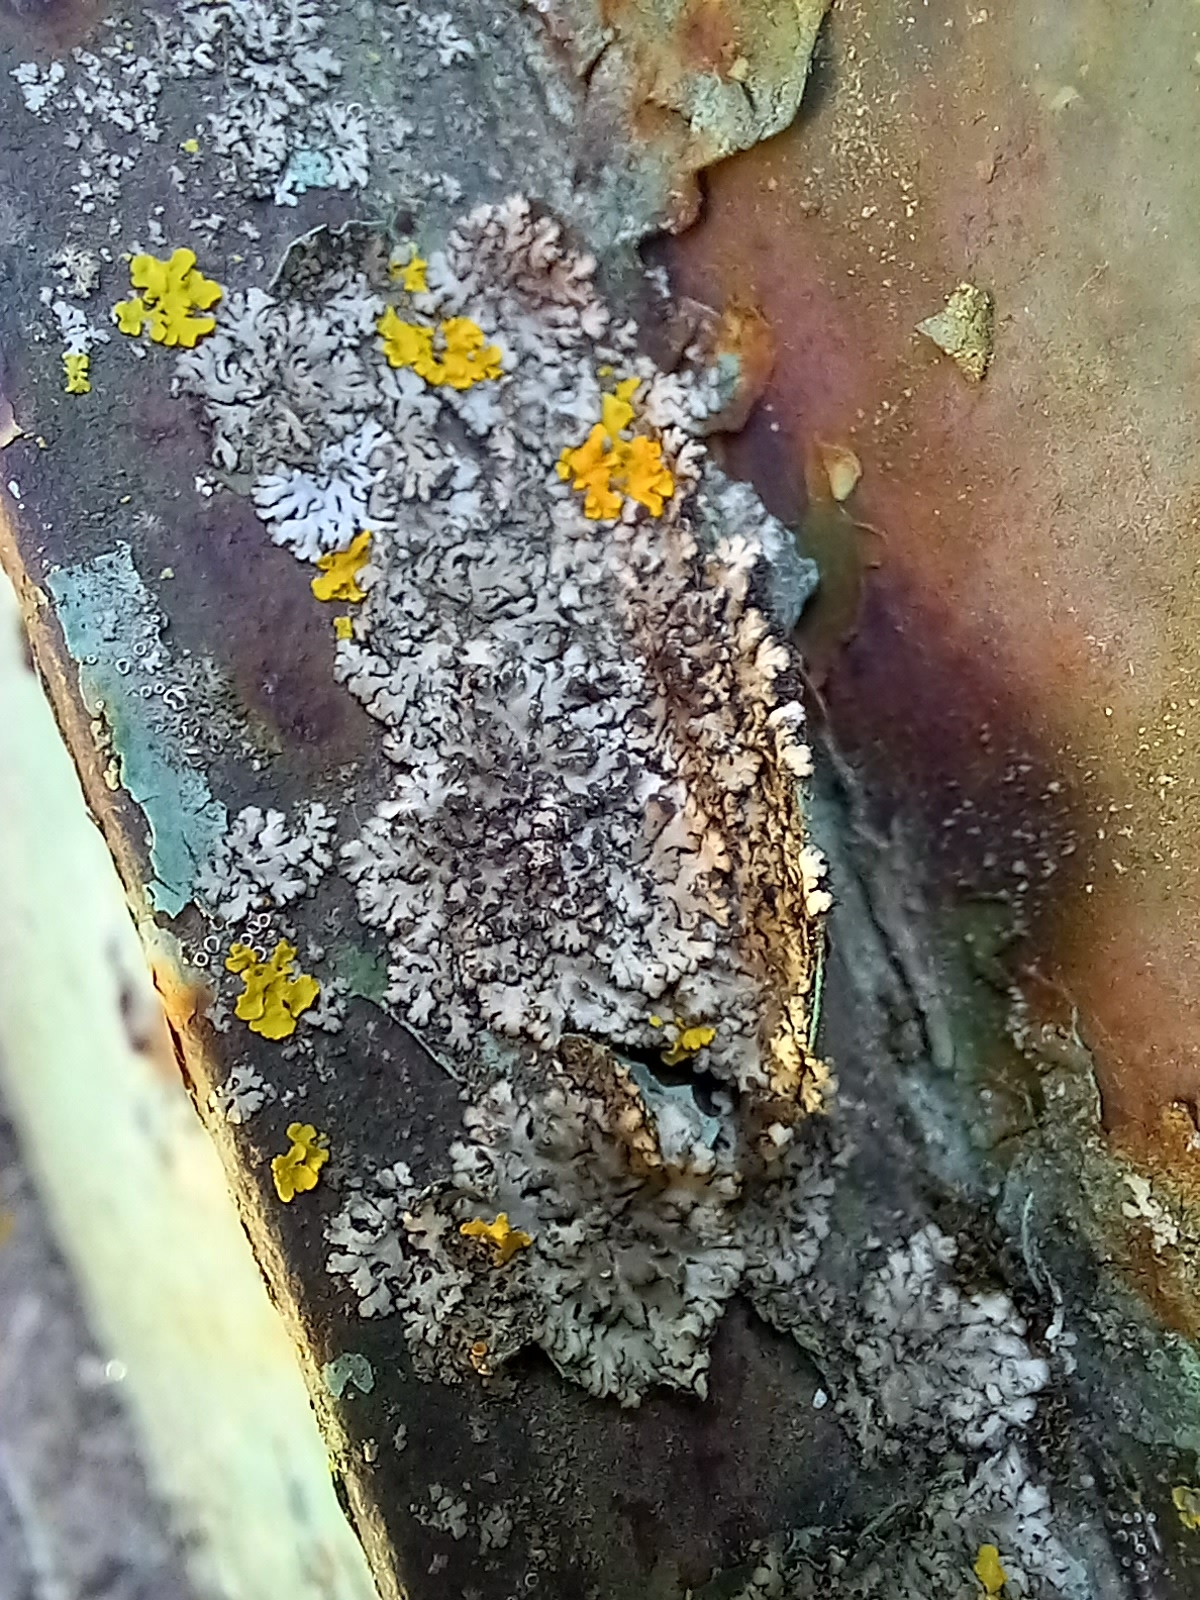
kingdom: Fungi
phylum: Ascomycota
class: Lecanoromycetes
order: Caliciales
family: Physciaceae
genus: Phaeophyscia
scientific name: Phaeophyscia orbicularis
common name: Mealy shadow lichen
